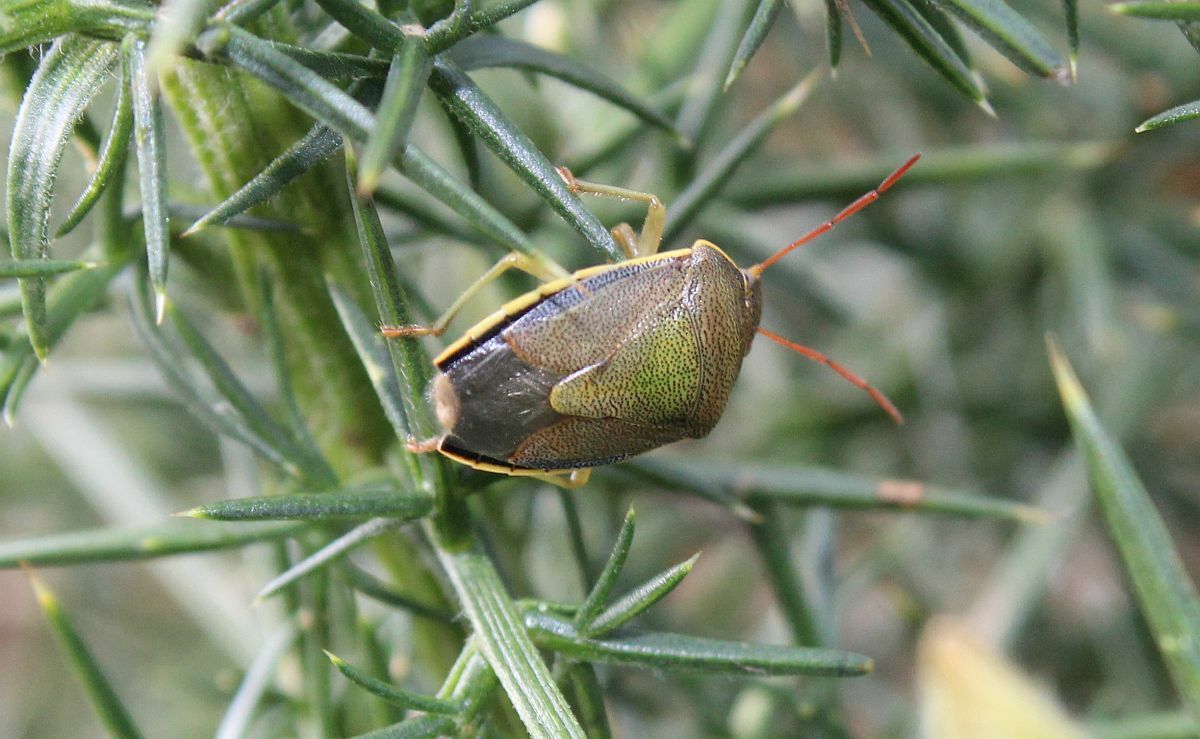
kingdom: Animalia
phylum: Arthropoda
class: Insecta
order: Hemiptera
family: Pentatomidae
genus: Piezodorus
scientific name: Piezodorus lituratus
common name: Stink bug
